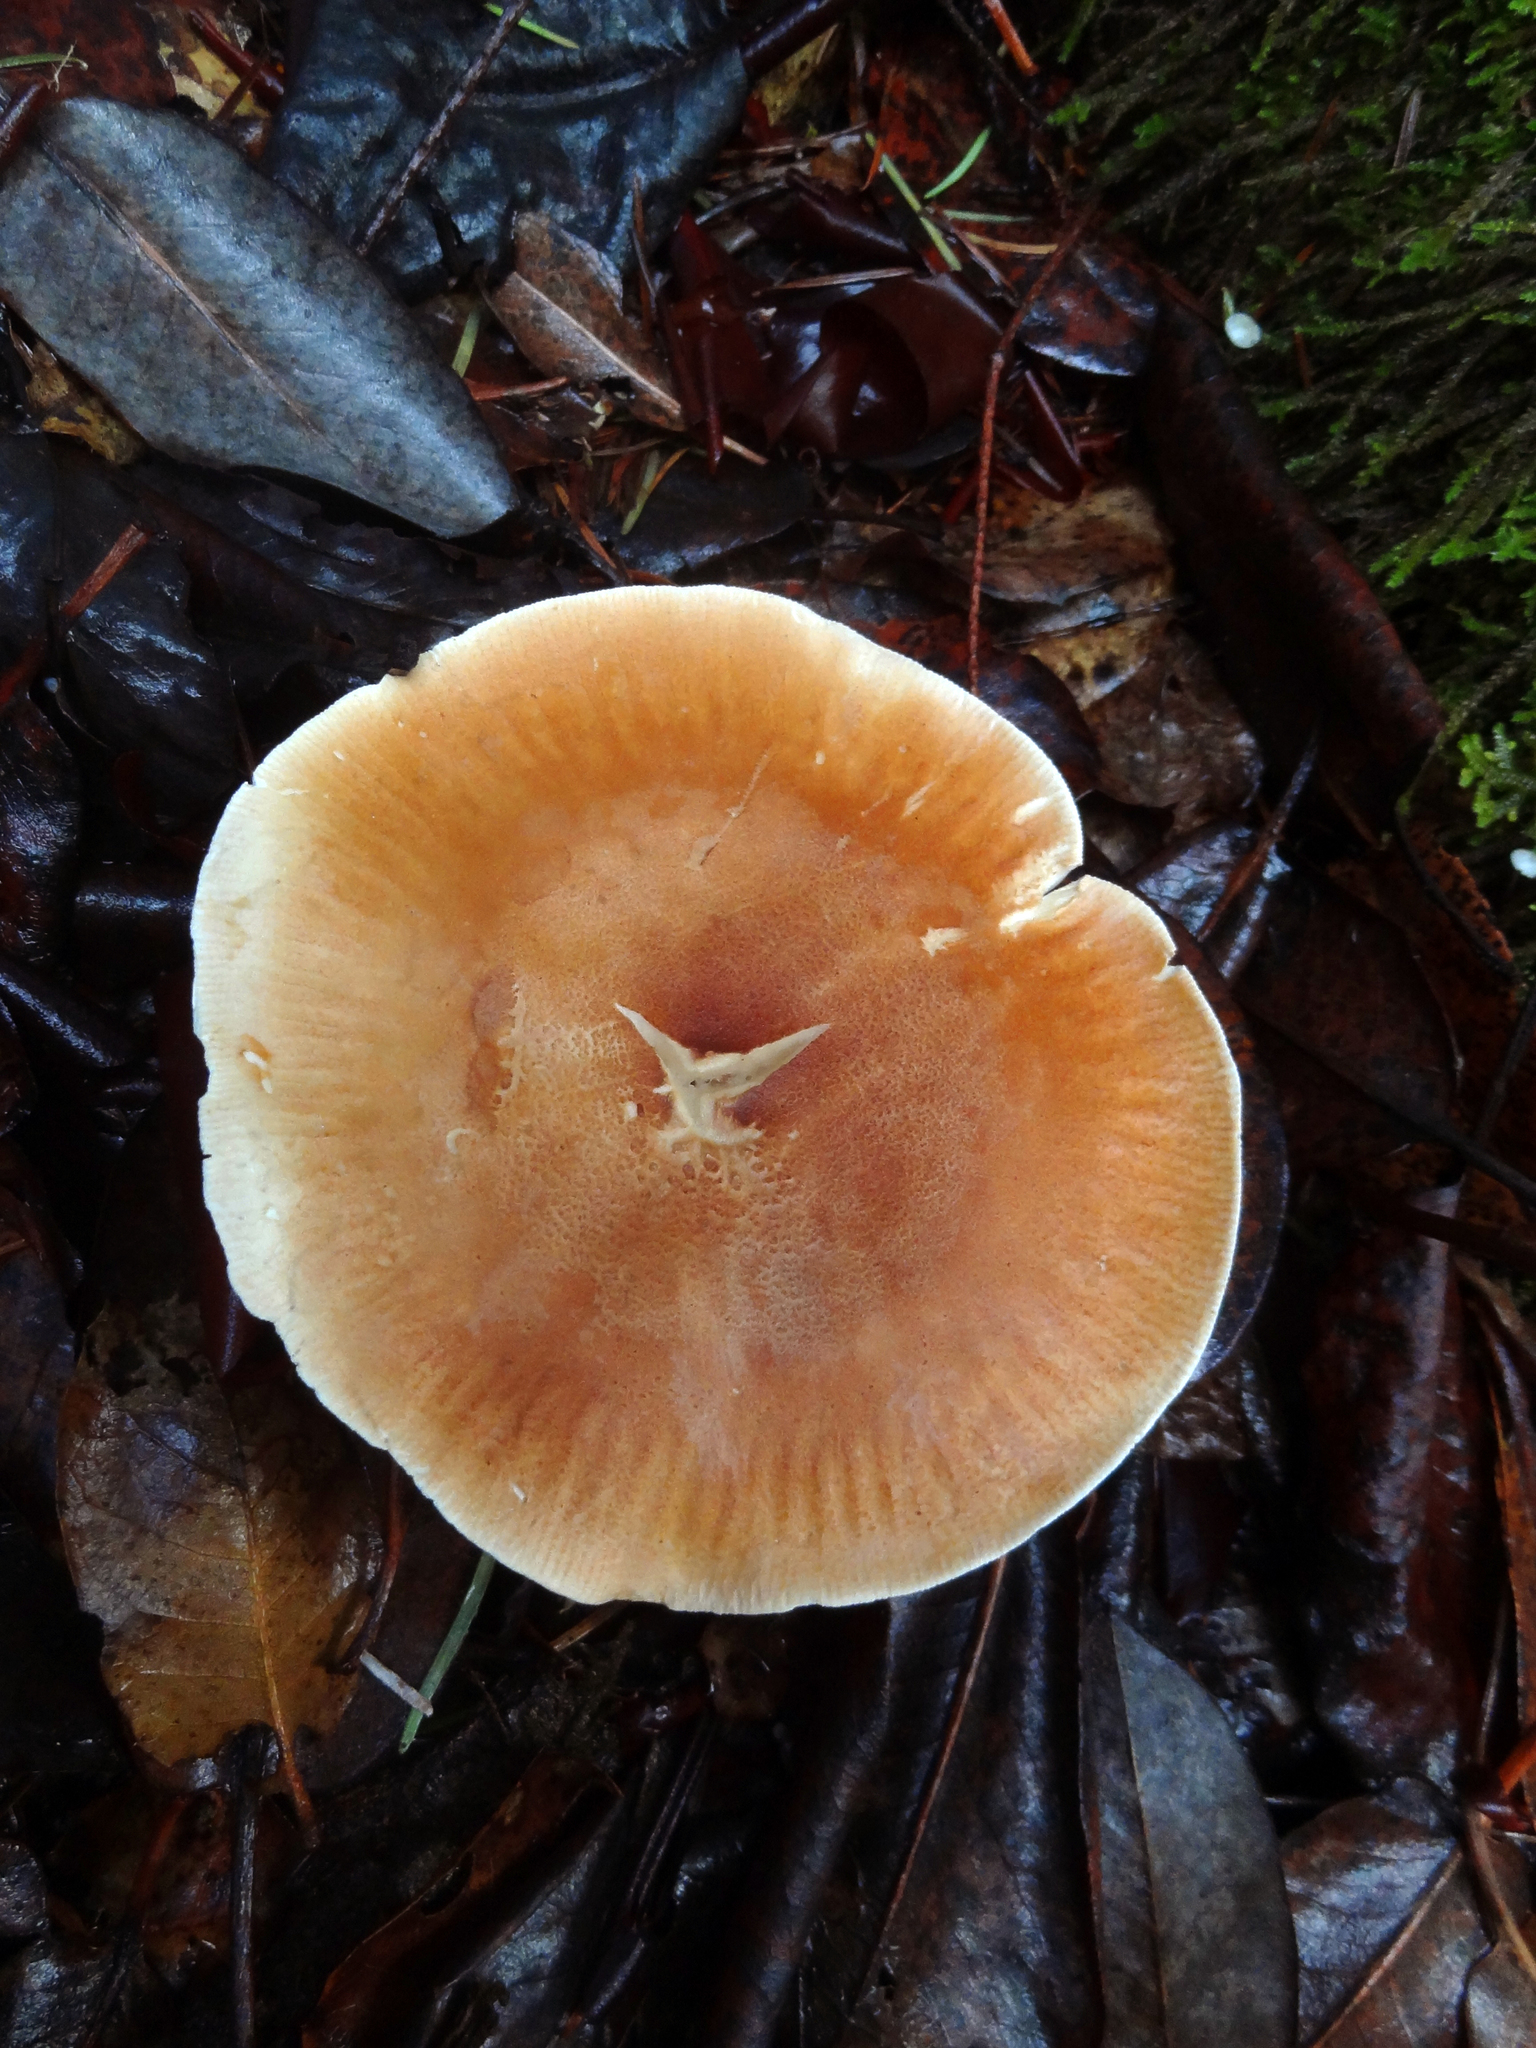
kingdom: Fungi
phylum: Basidiomycota
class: Agaricomycetes
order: Agaricales
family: Tricholomataceae
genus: Leucopaxillus
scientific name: Leucopaxillus gentianeus
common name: Bitter funnel
